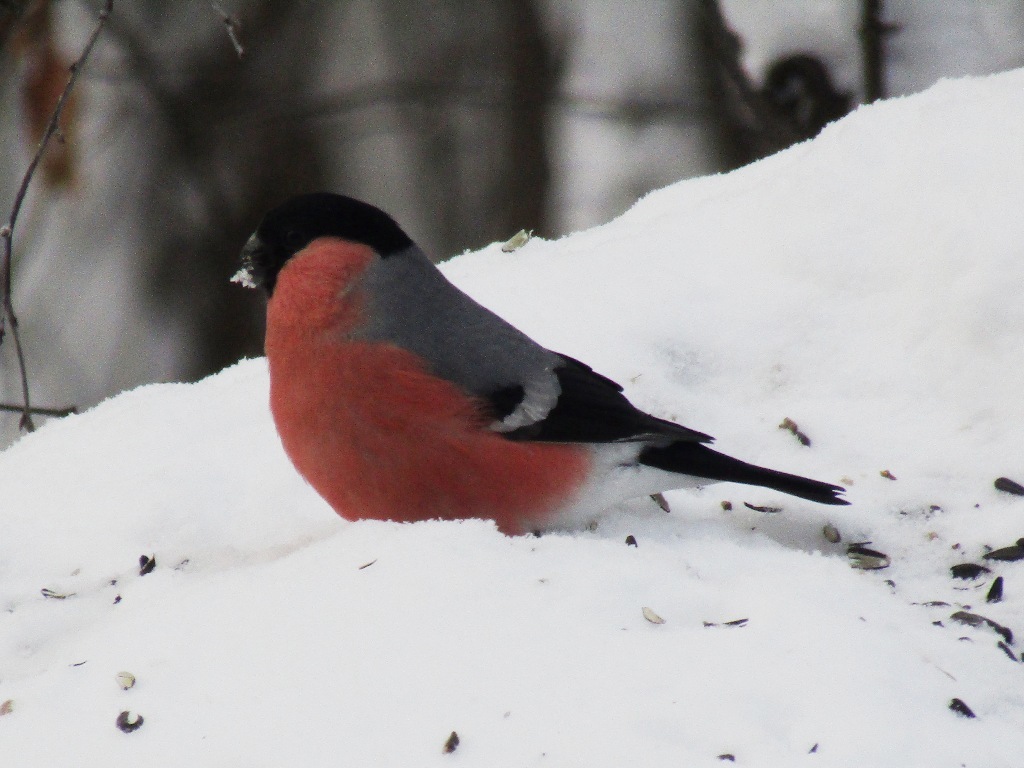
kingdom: Animalia
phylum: Chordata
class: Aves
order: Passeriformes
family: Fringillidae
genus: Pyrrhula
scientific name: Pyrrhula pyrrhula
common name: Eurasian bullfinch
